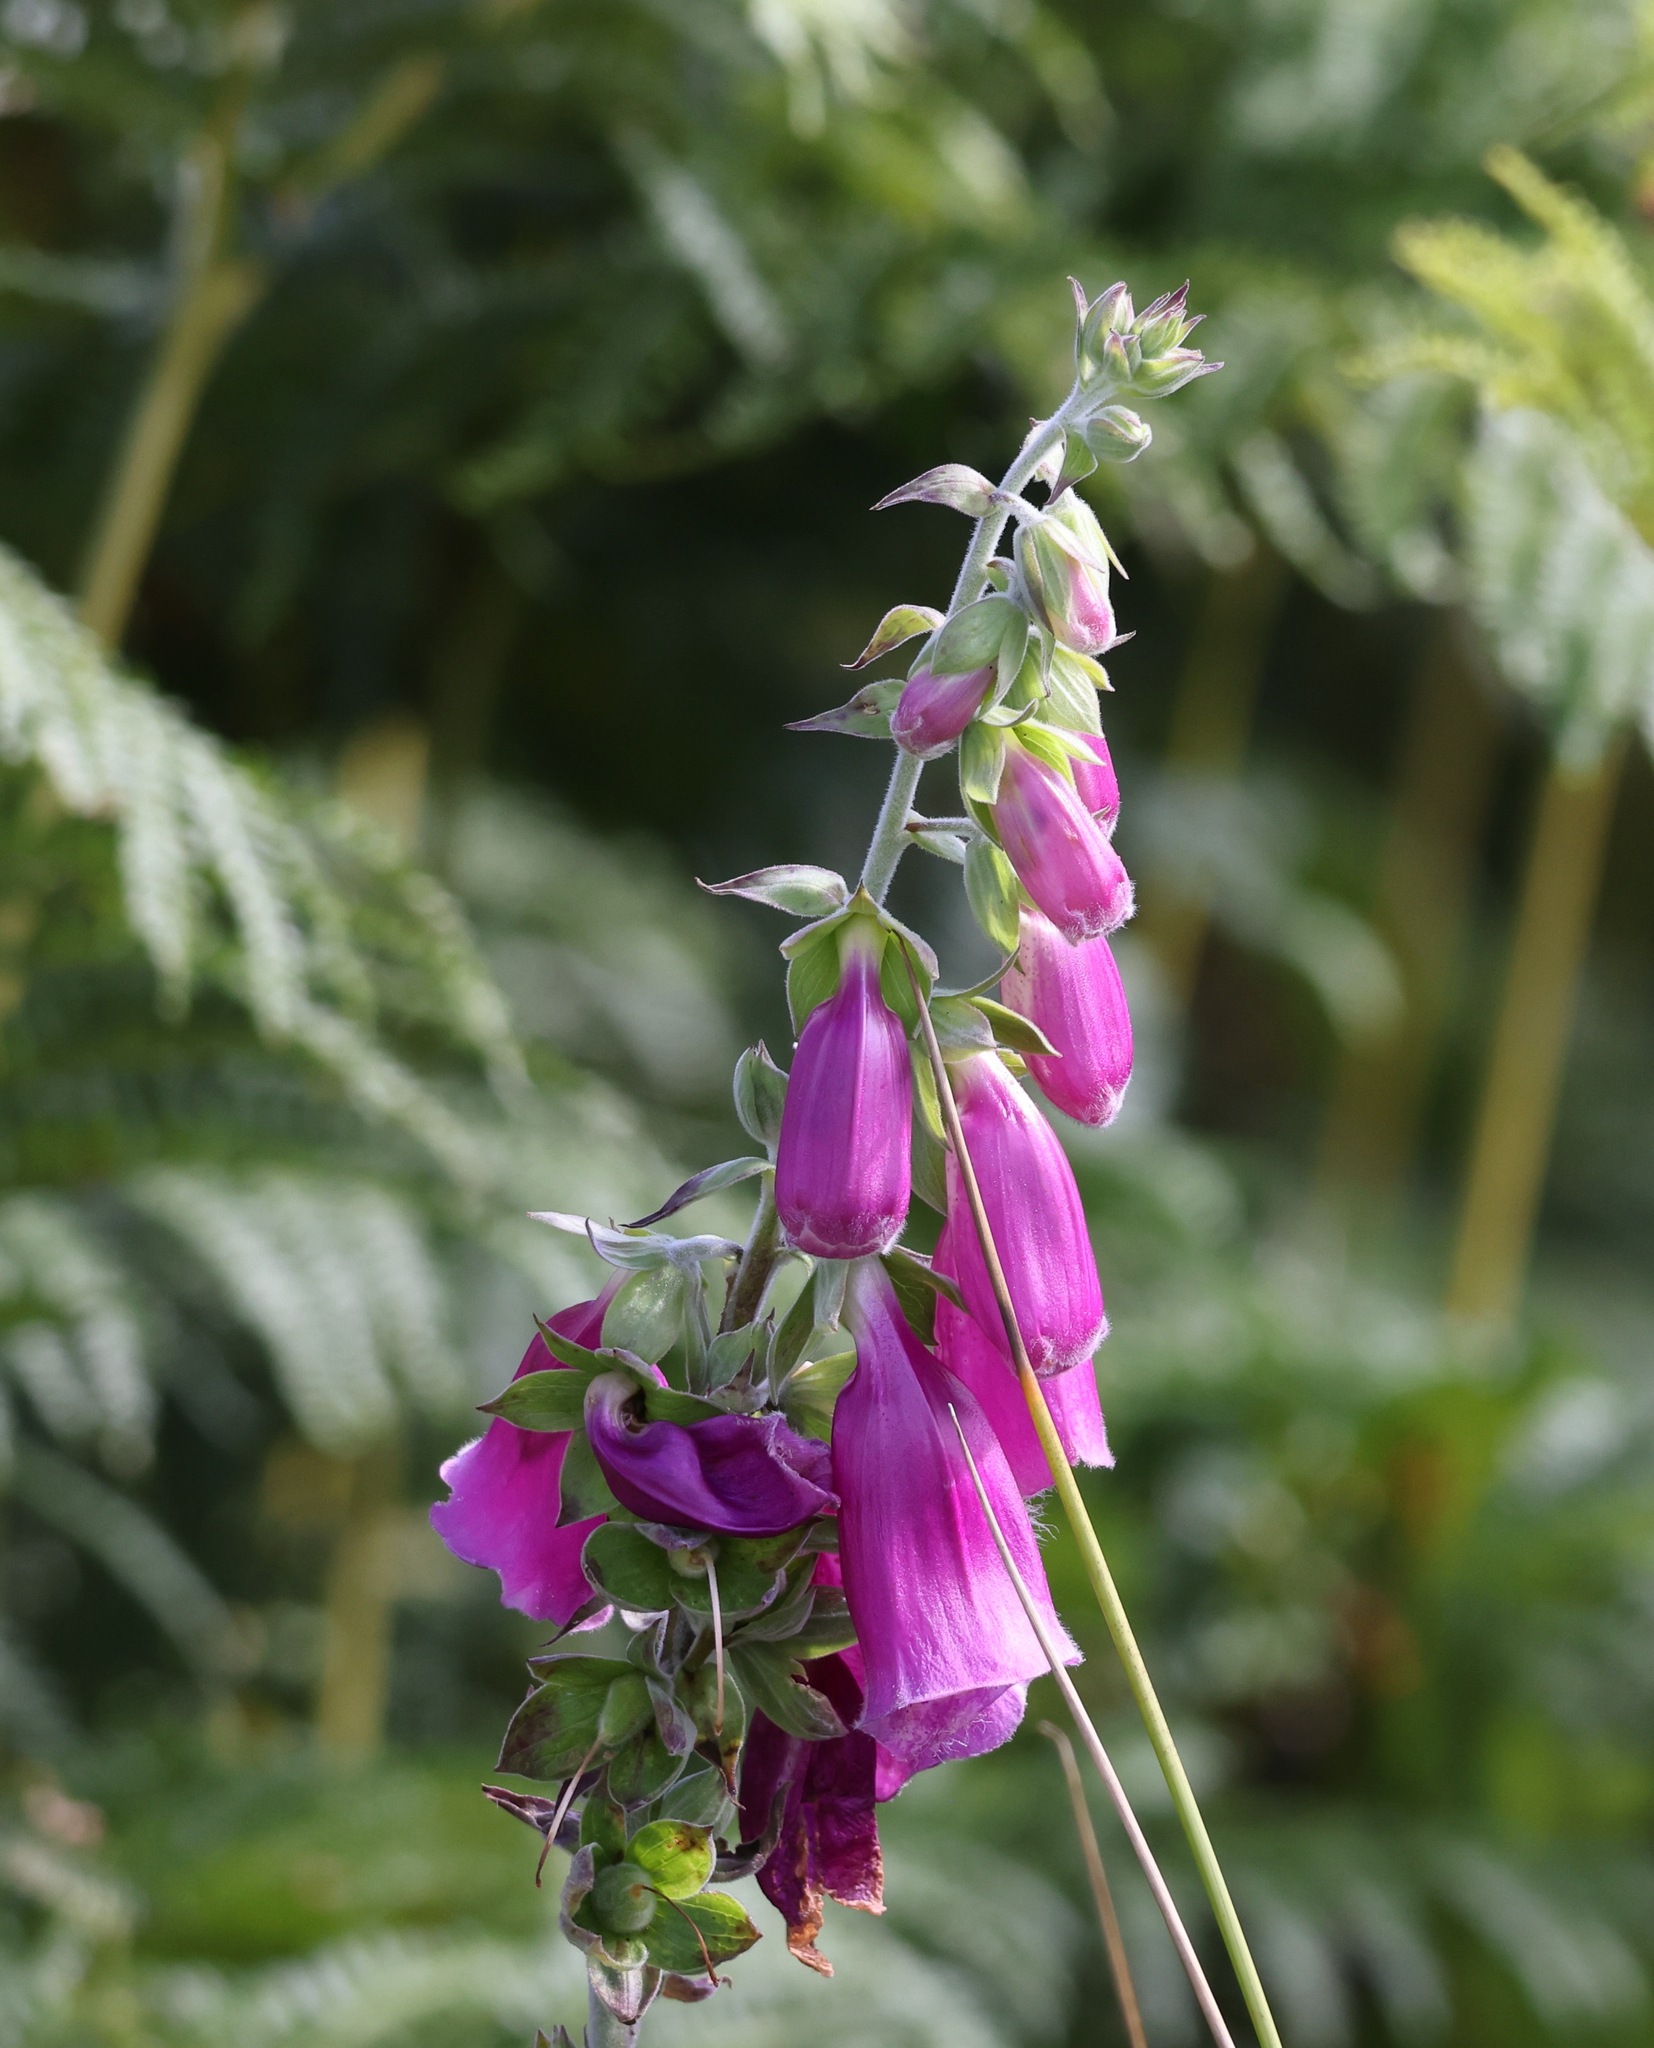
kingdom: Plantae
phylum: Tracheophyta
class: Magnoliopsida
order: Lamiales
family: Plantaginaceae
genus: Digitalis
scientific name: Digitalis purpurea
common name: Foxglove
